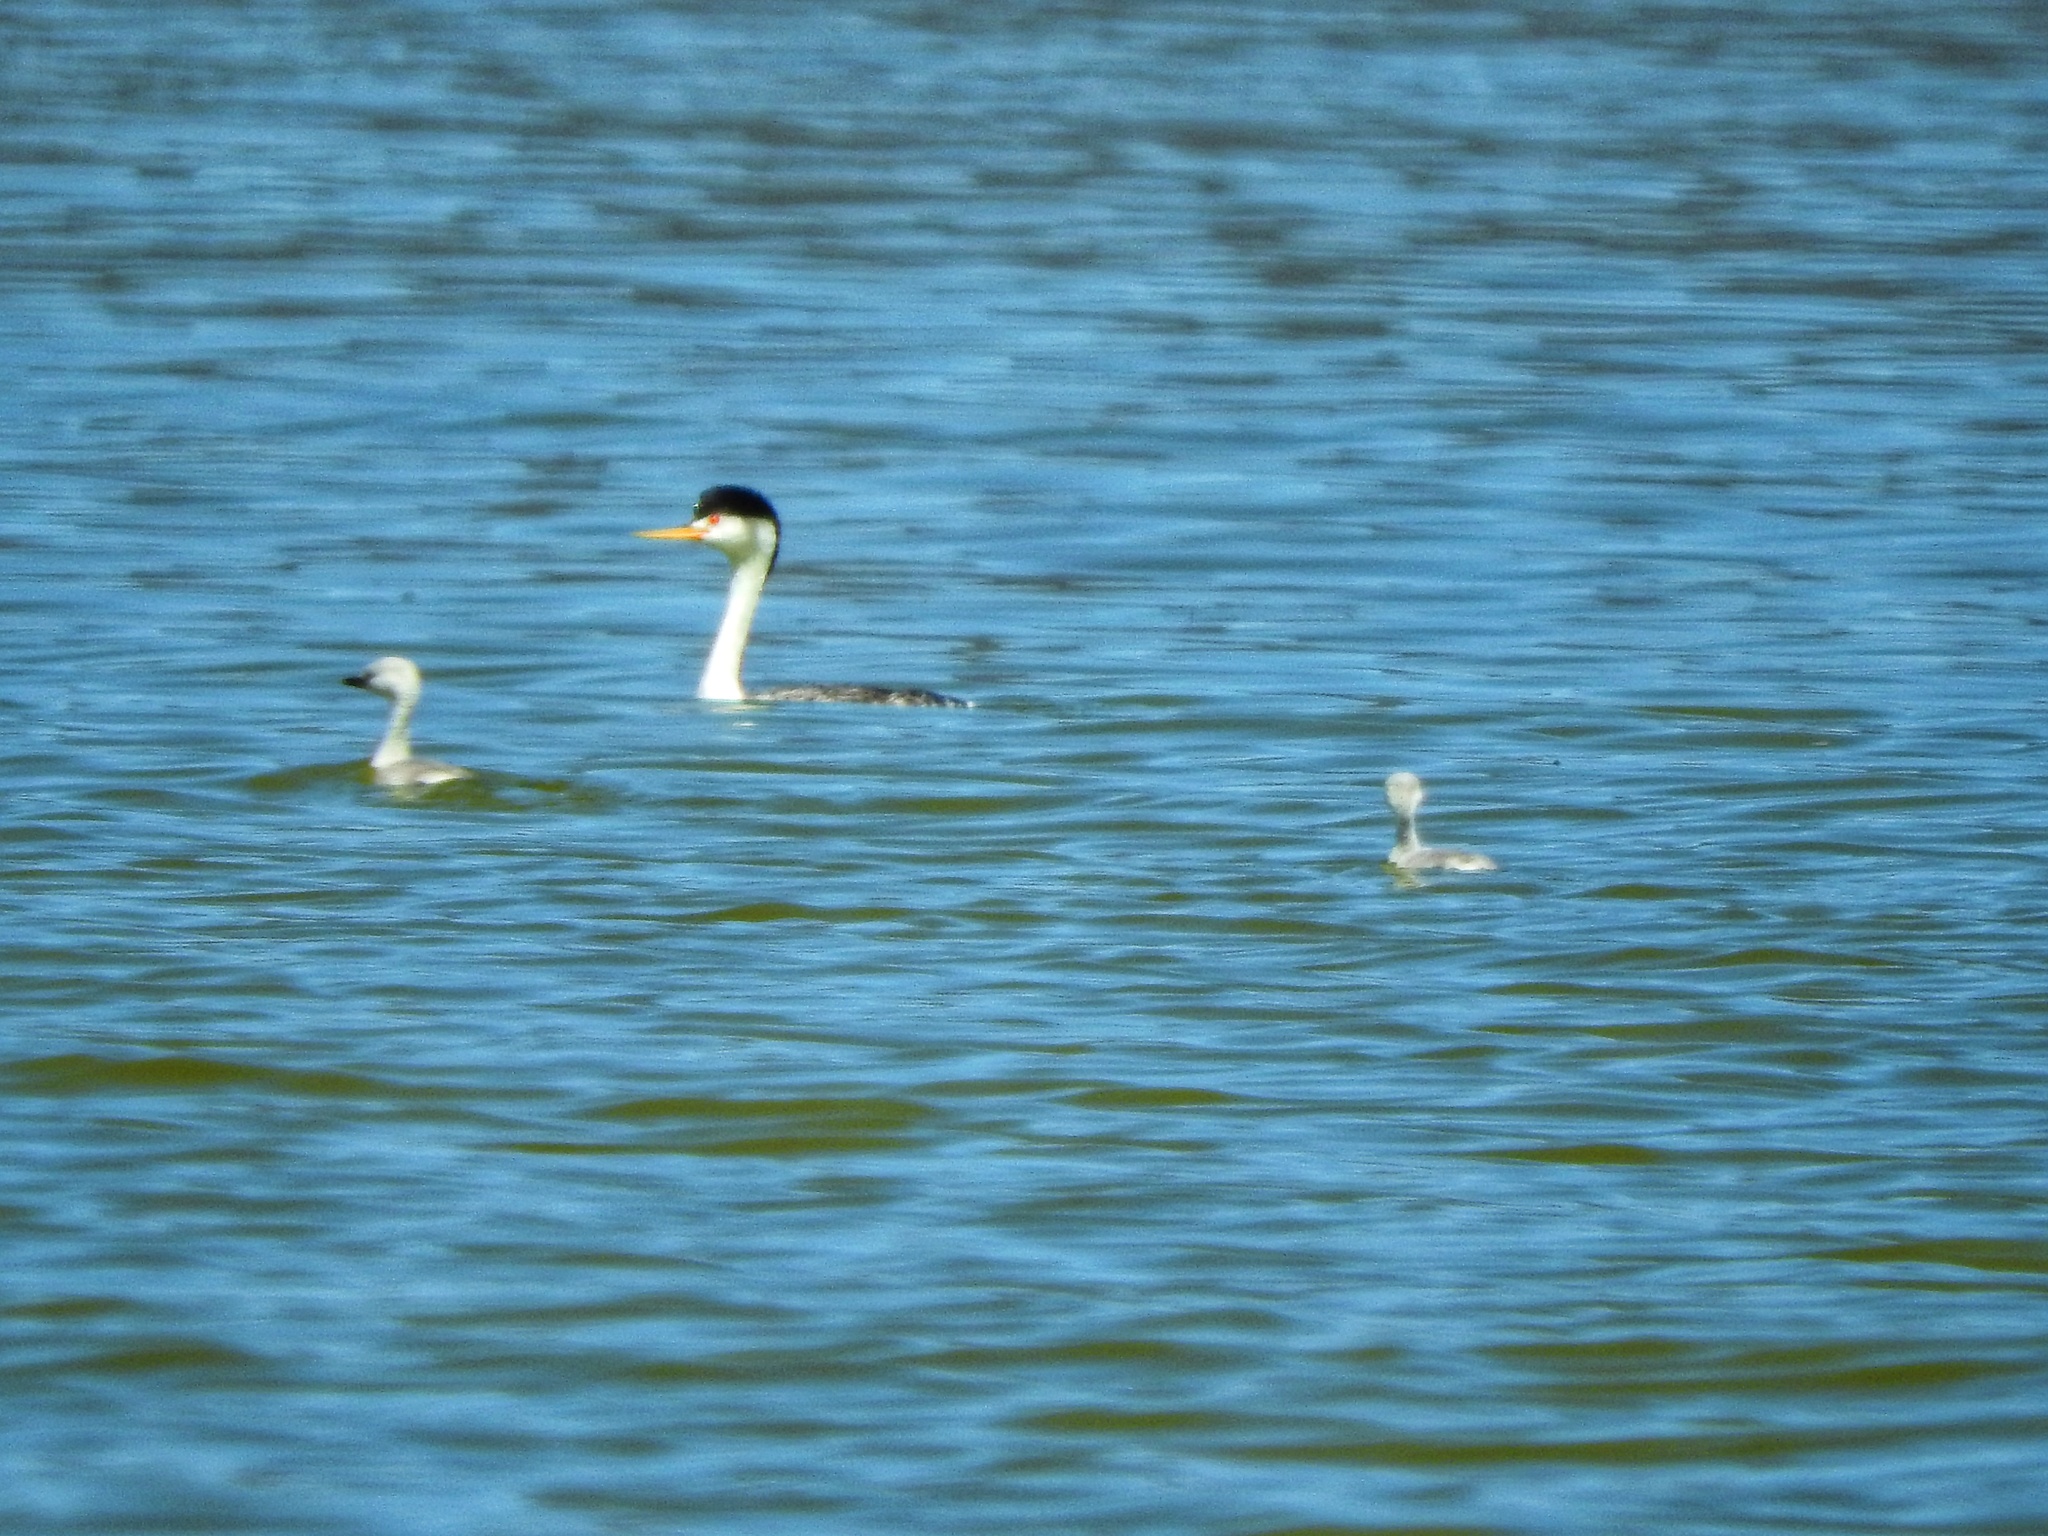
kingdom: Animalia
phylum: Chordata
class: Aves
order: Podicipediformes
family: Podicipedidae
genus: Aechmophorus
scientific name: Aechmophorus clarkii
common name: Clark's grebe
